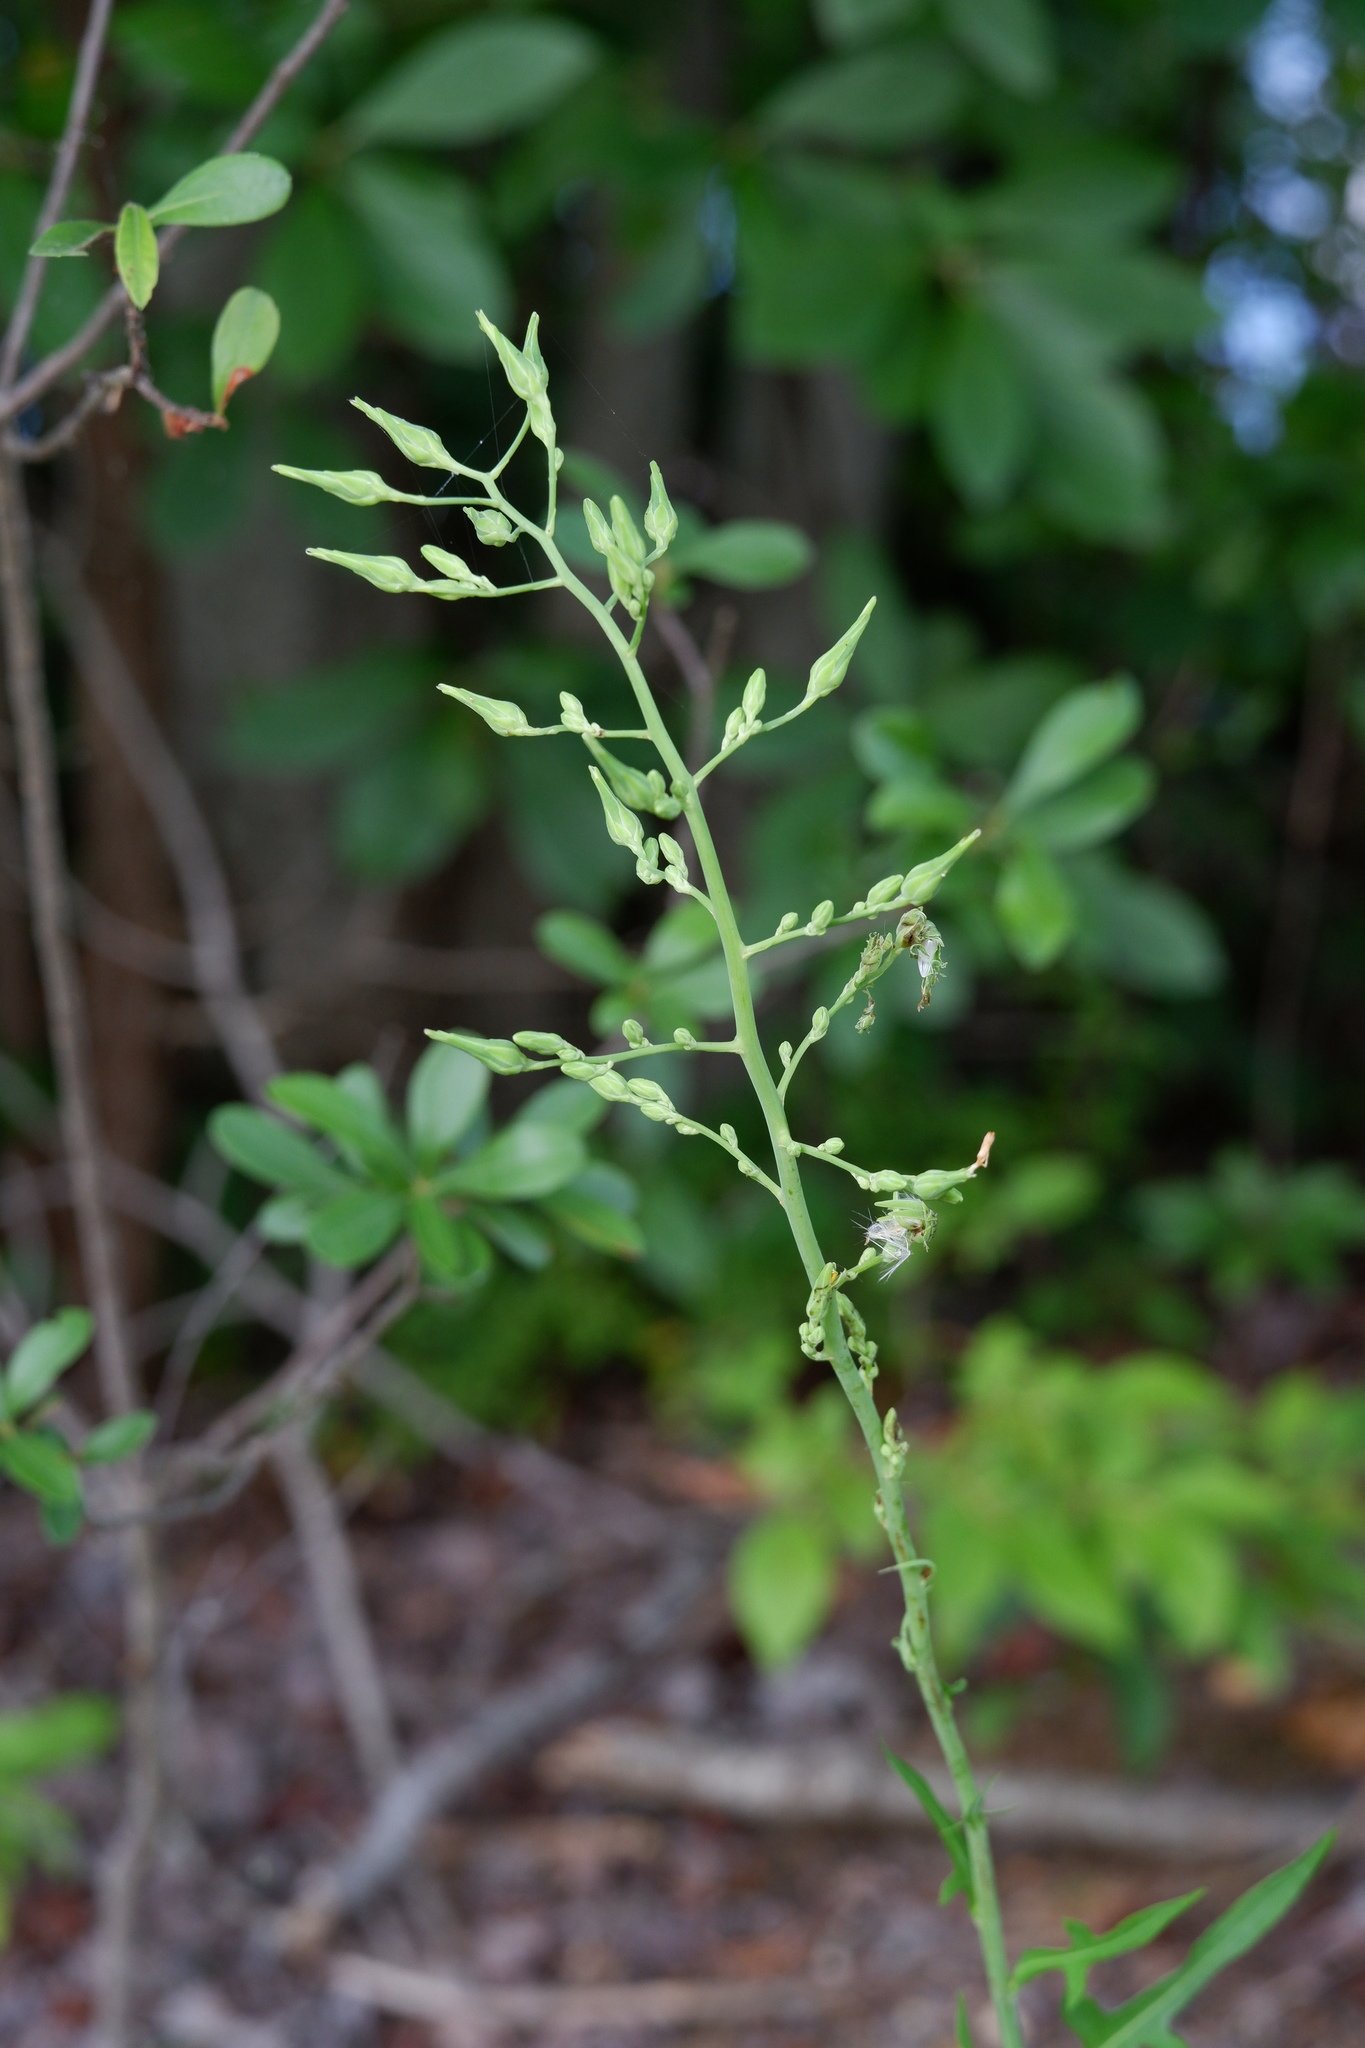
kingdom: Plantae
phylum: Tracheophyta
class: Magnoliopsida
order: Asterales
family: Asteraceae
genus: Lactuca
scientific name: Lactuca canadensis
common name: Canada lettuce
